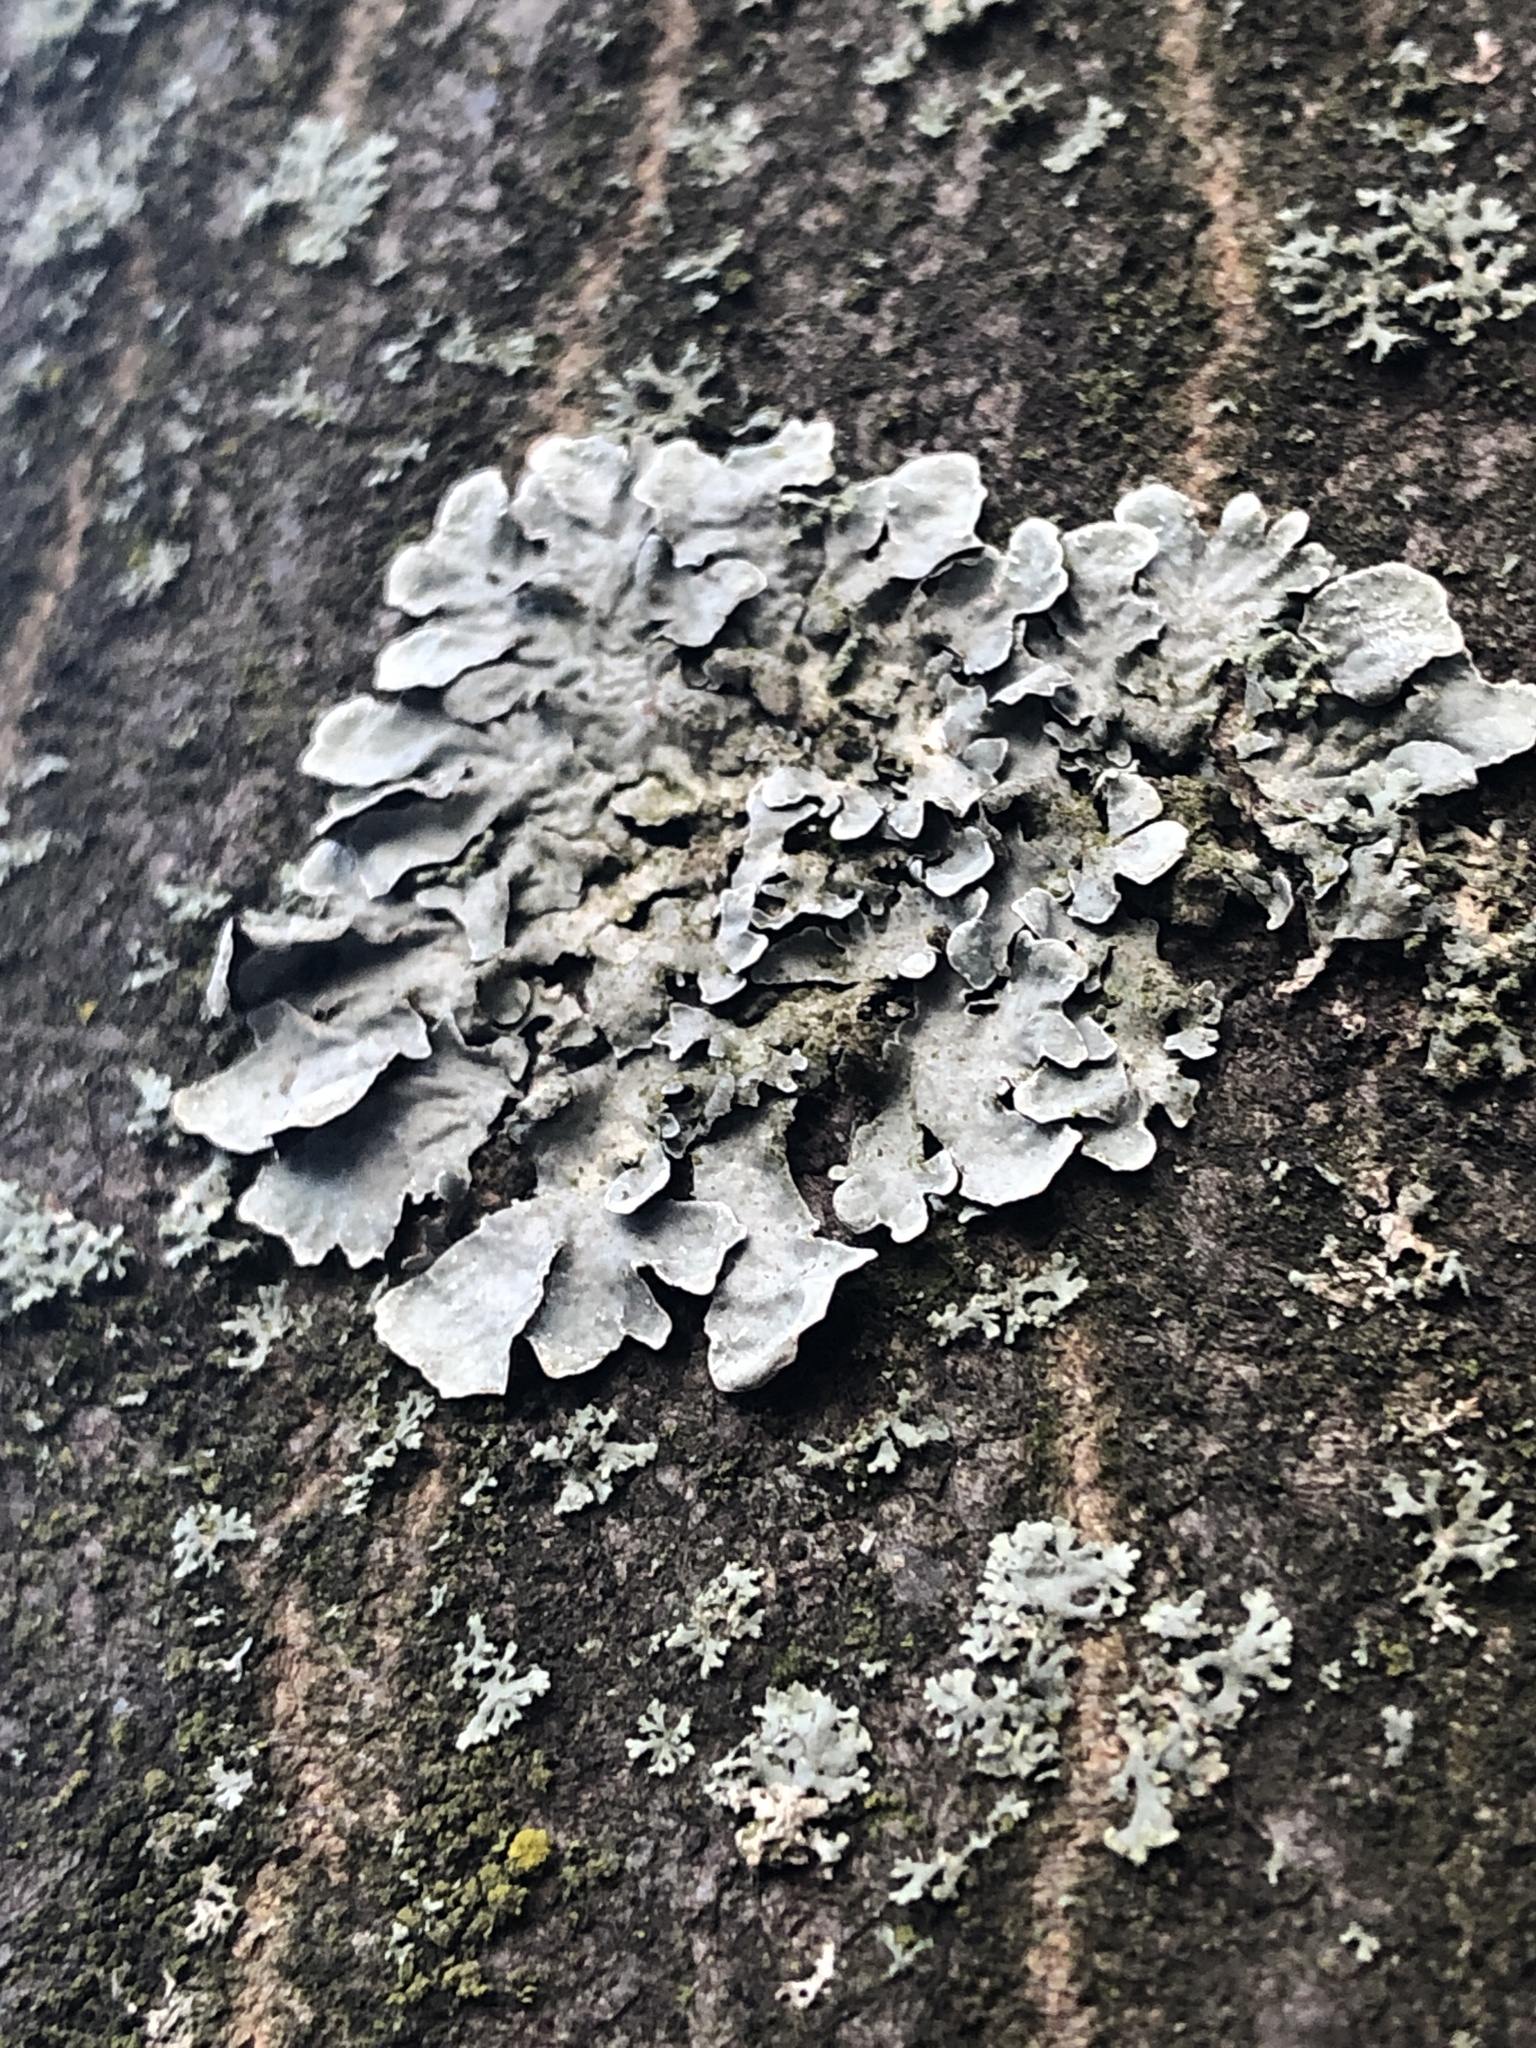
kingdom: Fungi
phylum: Ascomycota
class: Lecanoromycetes
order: Lecanorales
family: Parmeliaceae
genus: Parmelia
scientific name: Parmelia sulcata
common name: Netted shield lichen
